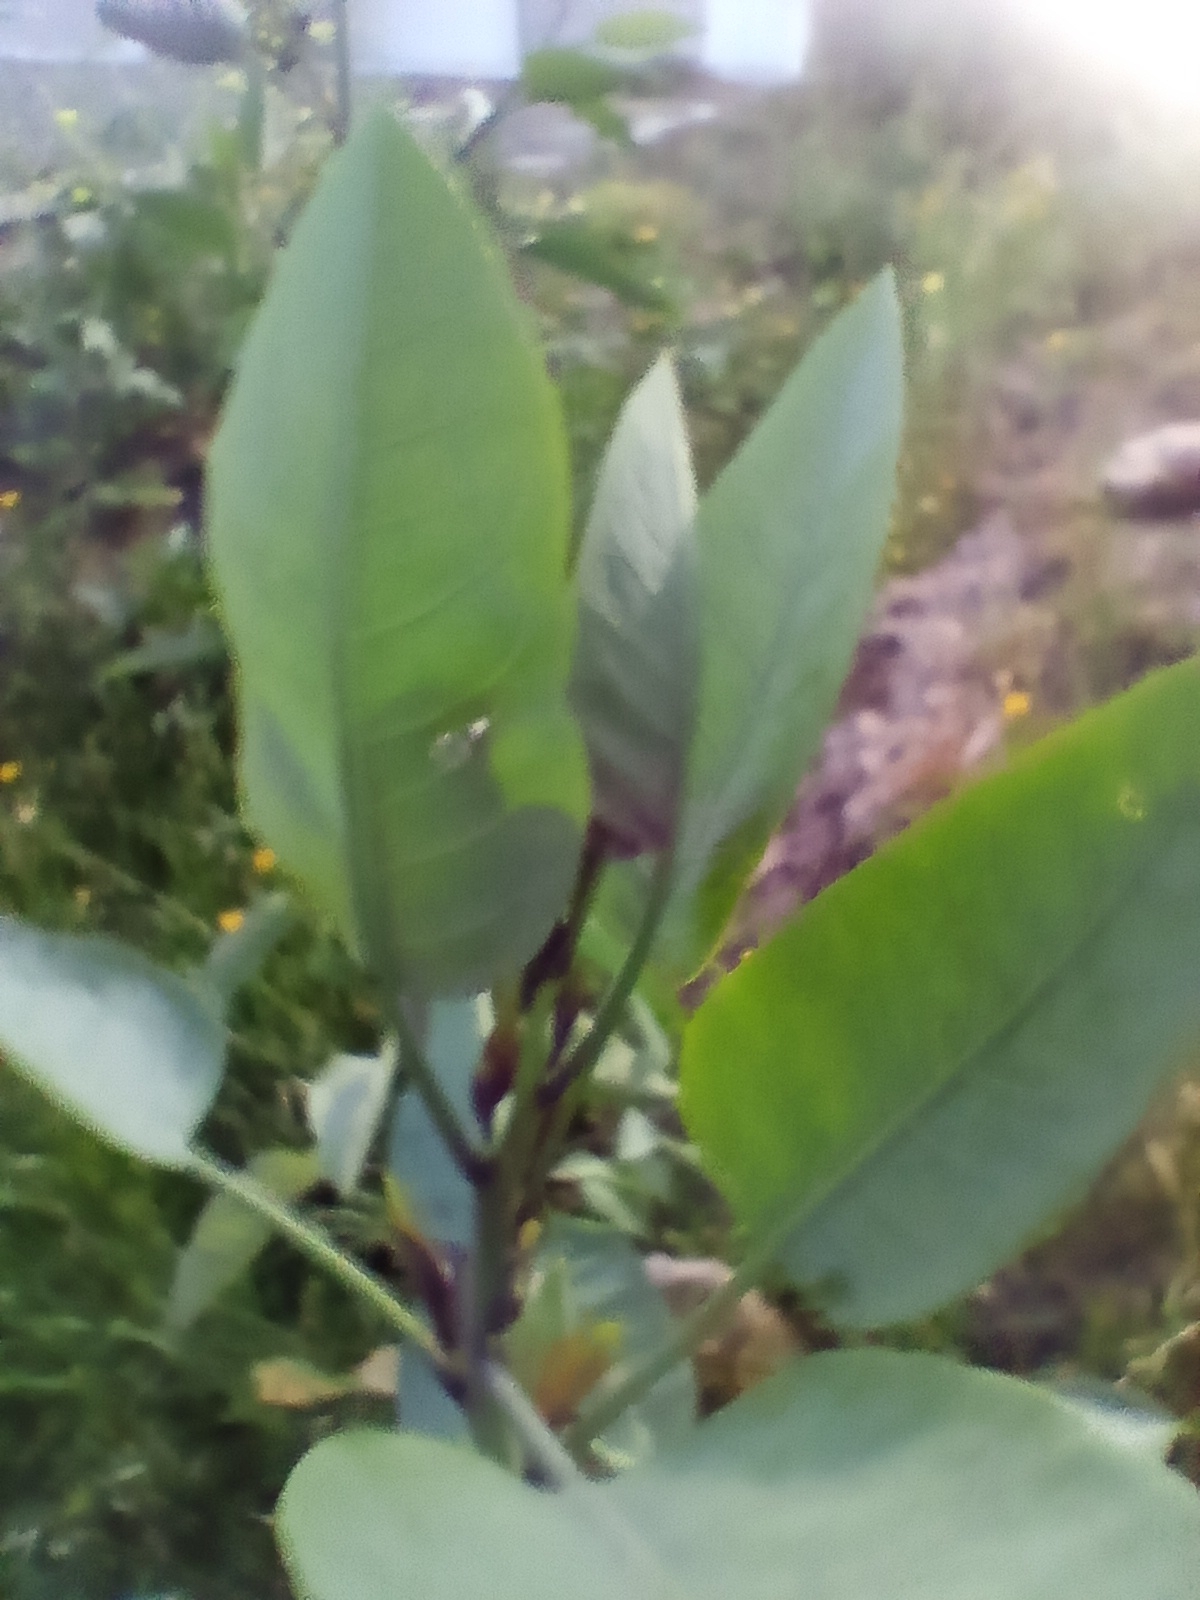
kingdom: Plantae
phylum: Tracheophyta
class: Magnoliopsida
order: Solanales
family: Solanaceae
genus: Nicotiana
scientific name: Nicotiana glauca
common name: Tree tobacco
